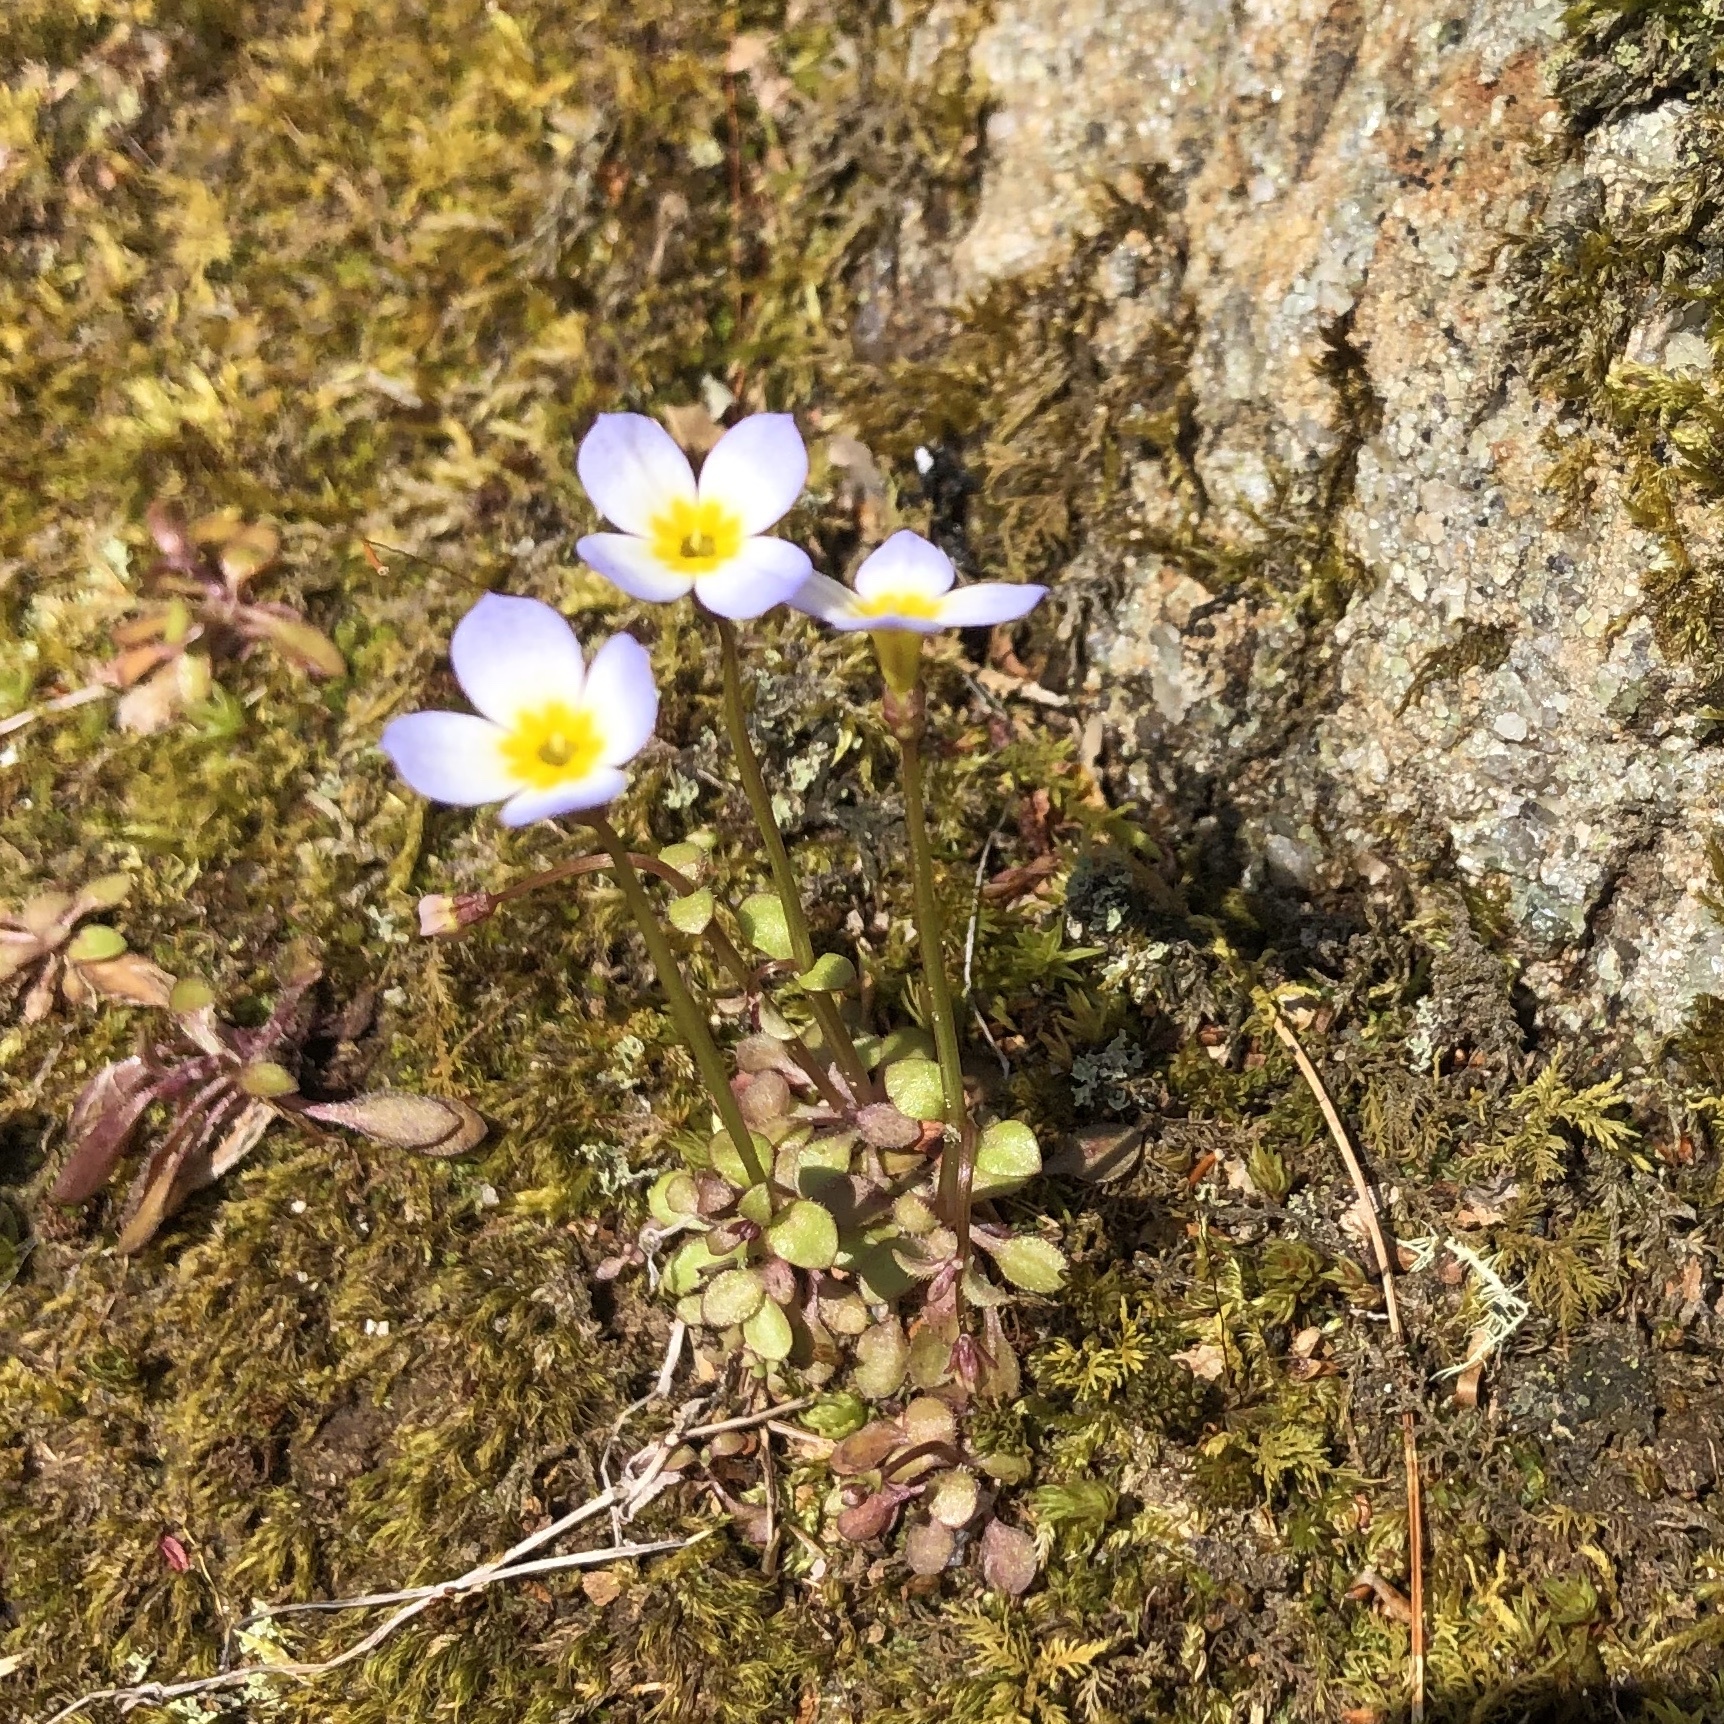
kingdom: Plantae
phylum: Tracheophyta
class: Magnoliopsida
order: Gentianales
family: Rubiaceae
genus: Houstonia
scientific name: Houstonia caerulea
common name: Bluets
